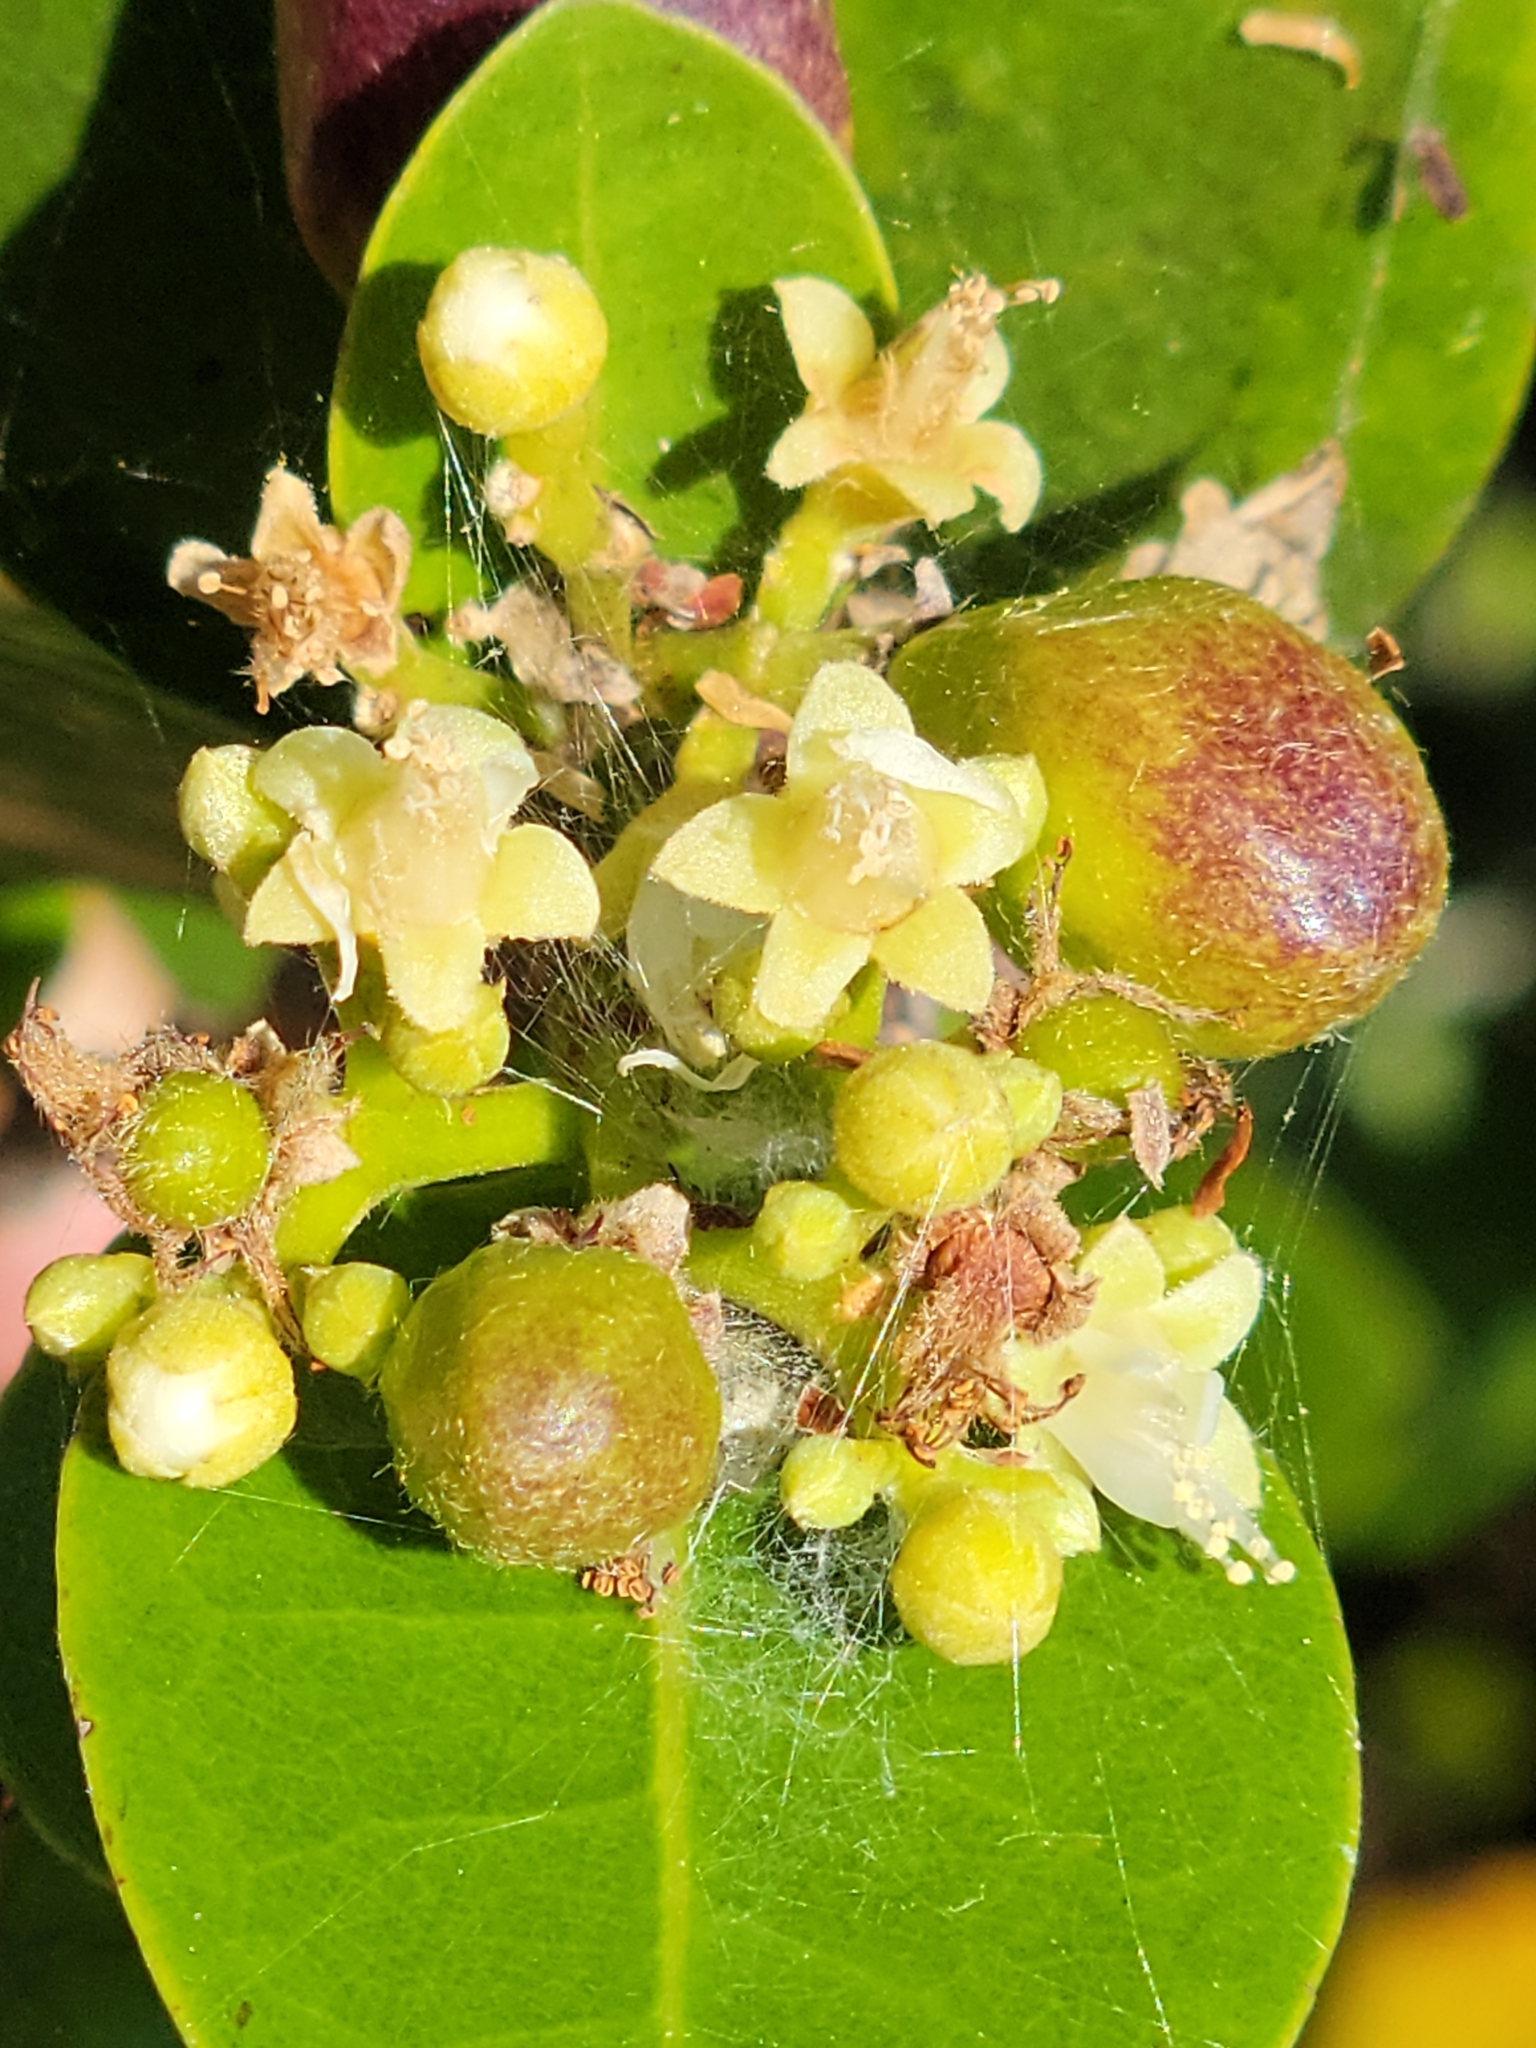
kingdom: Plantae
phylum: Tracheophyta
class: Magnoliopsida
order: Malpighiales
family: Chrysobalanaceae
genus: Chrysobalanus
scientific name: Chrysobalanus icaco
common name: Coco plum
